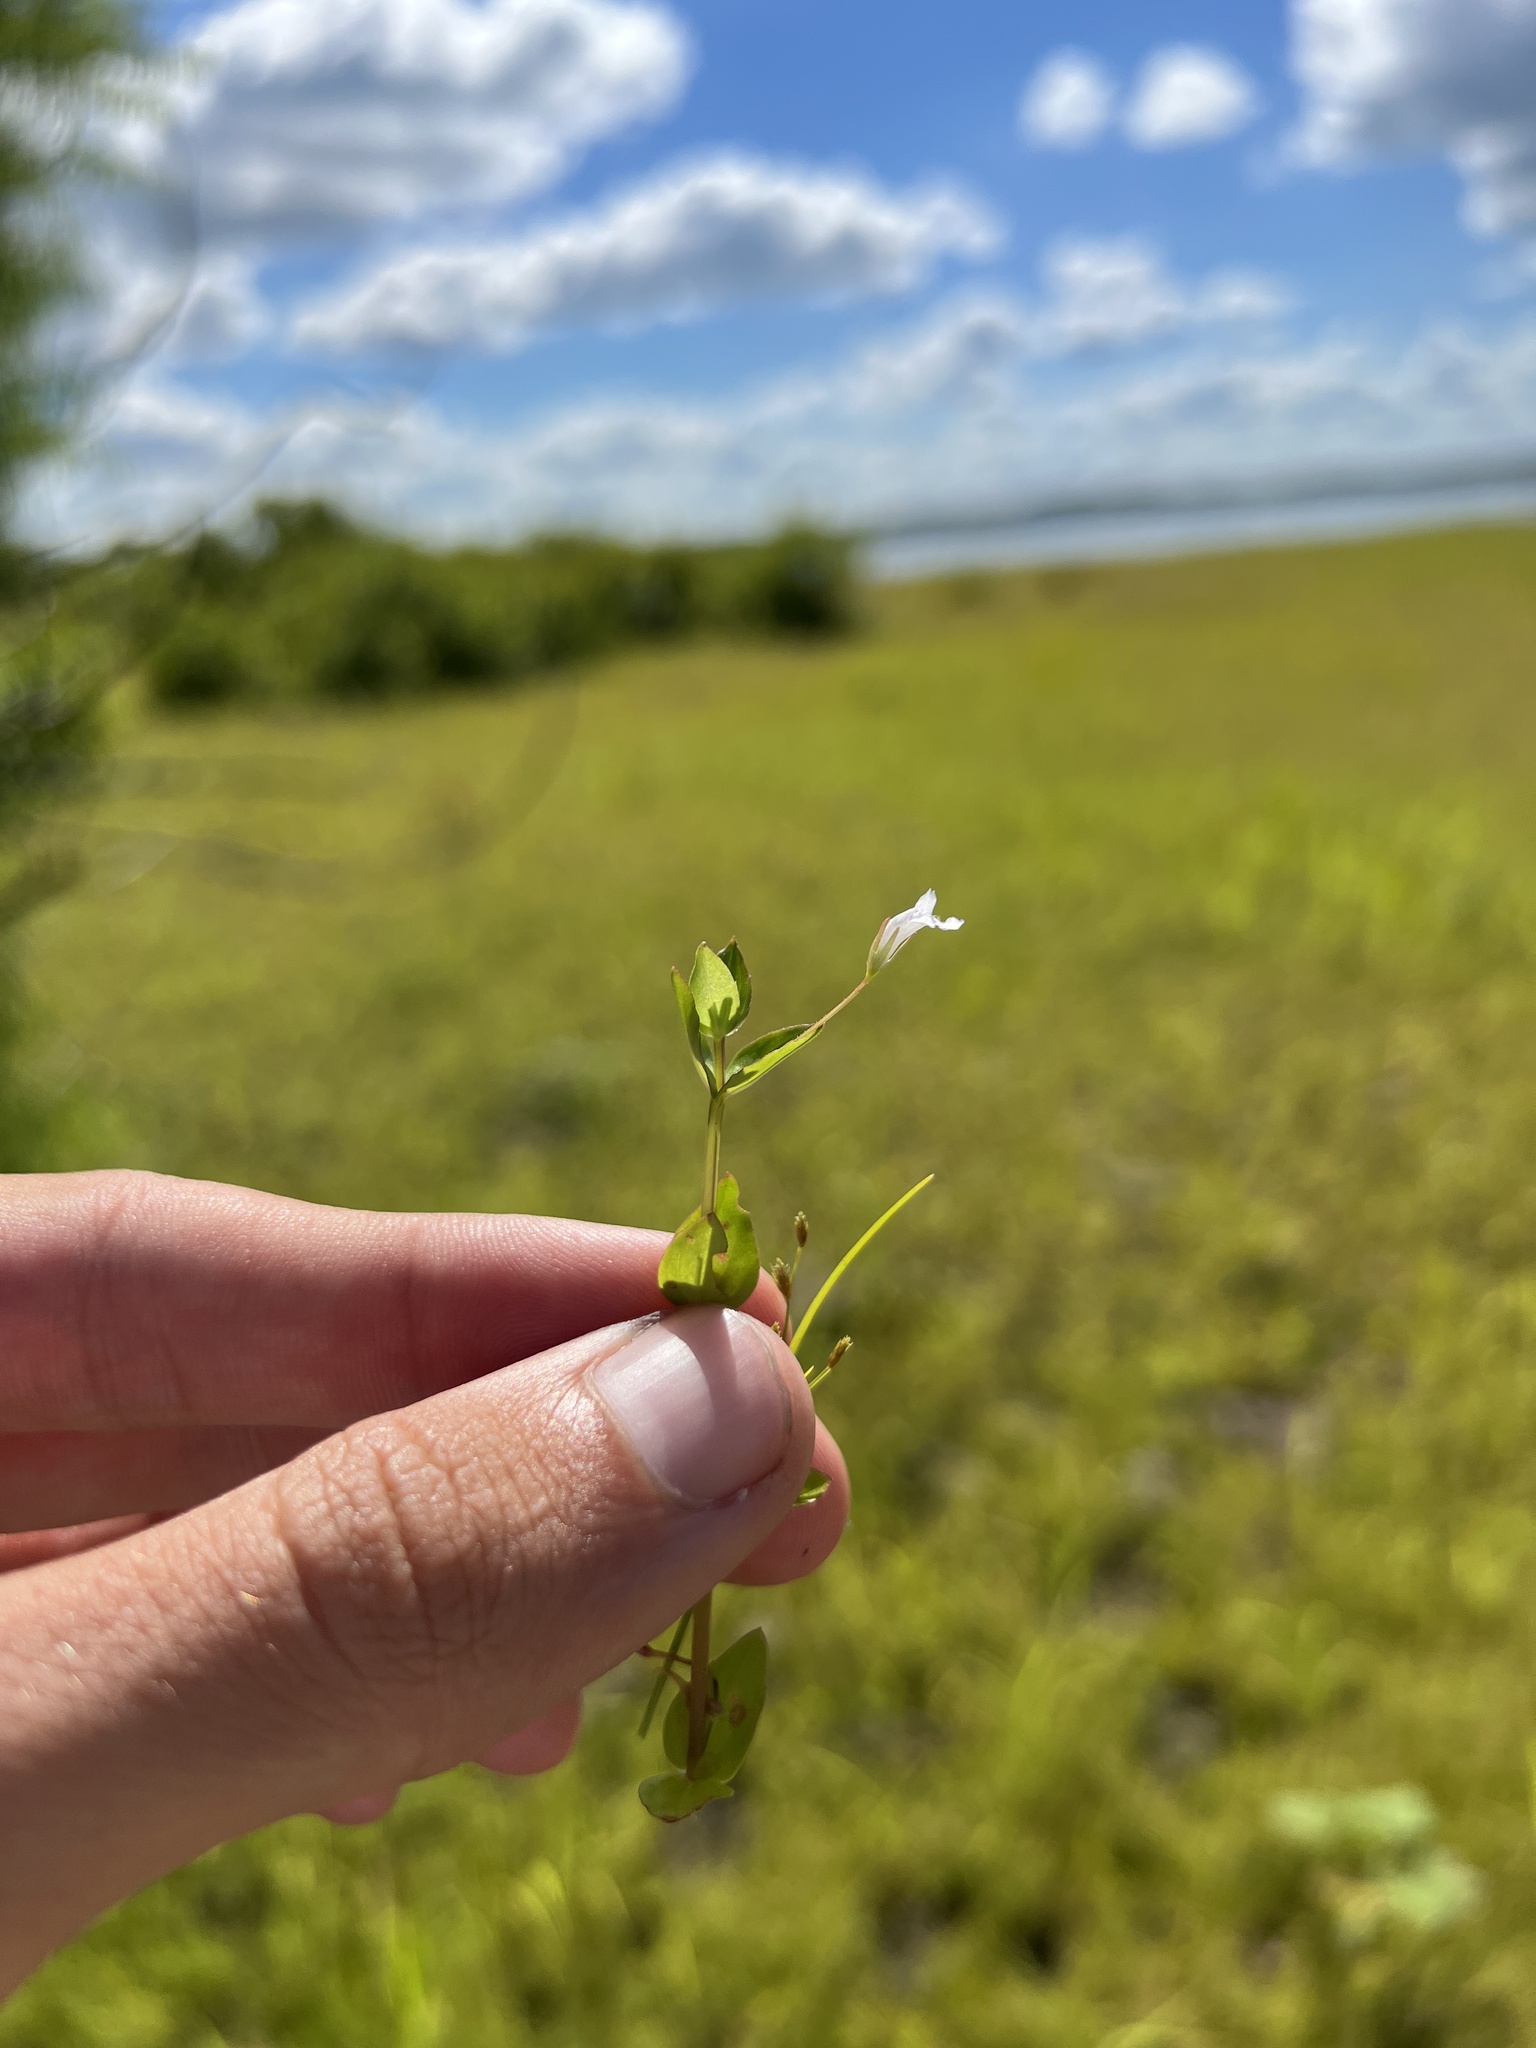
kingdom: Plantae
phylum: Tracheophyta
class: Magnoliopsida
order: Lamiales
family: Linderniaceae
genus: Lindernia
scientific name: Lindernia dubia
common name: Annual false pimpernel
